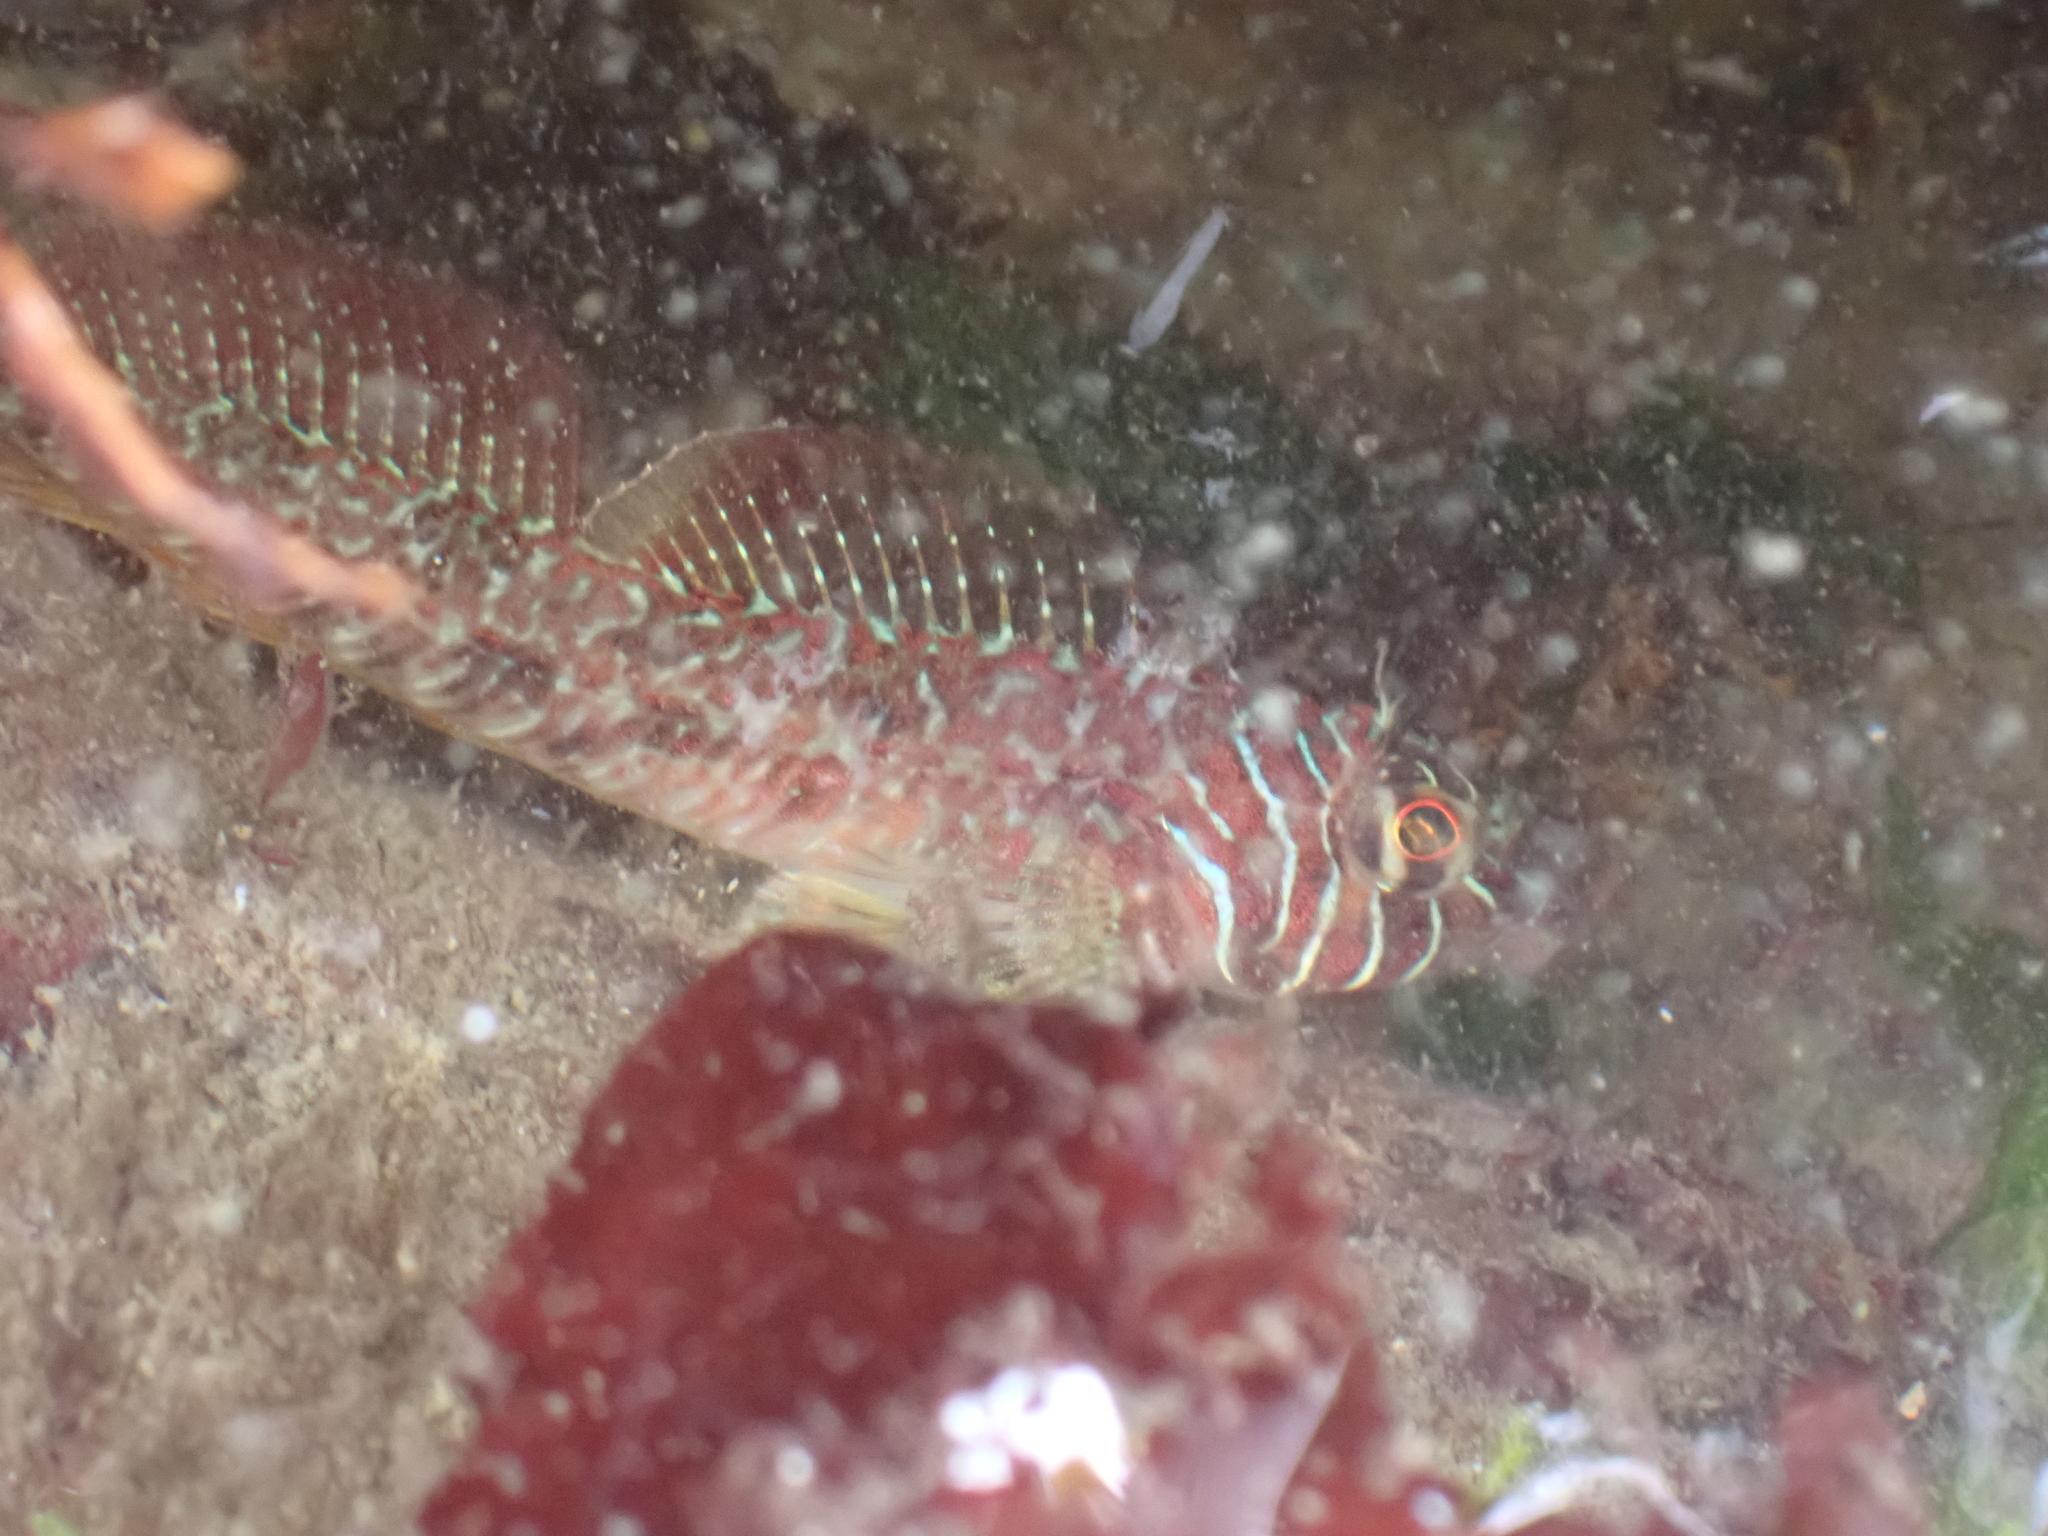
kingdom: Animalia
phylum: Chordata
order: Scorpaeniformes
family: Cottidae
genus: Jordania
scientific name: Jordania zonope
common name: Longfin sculpin
